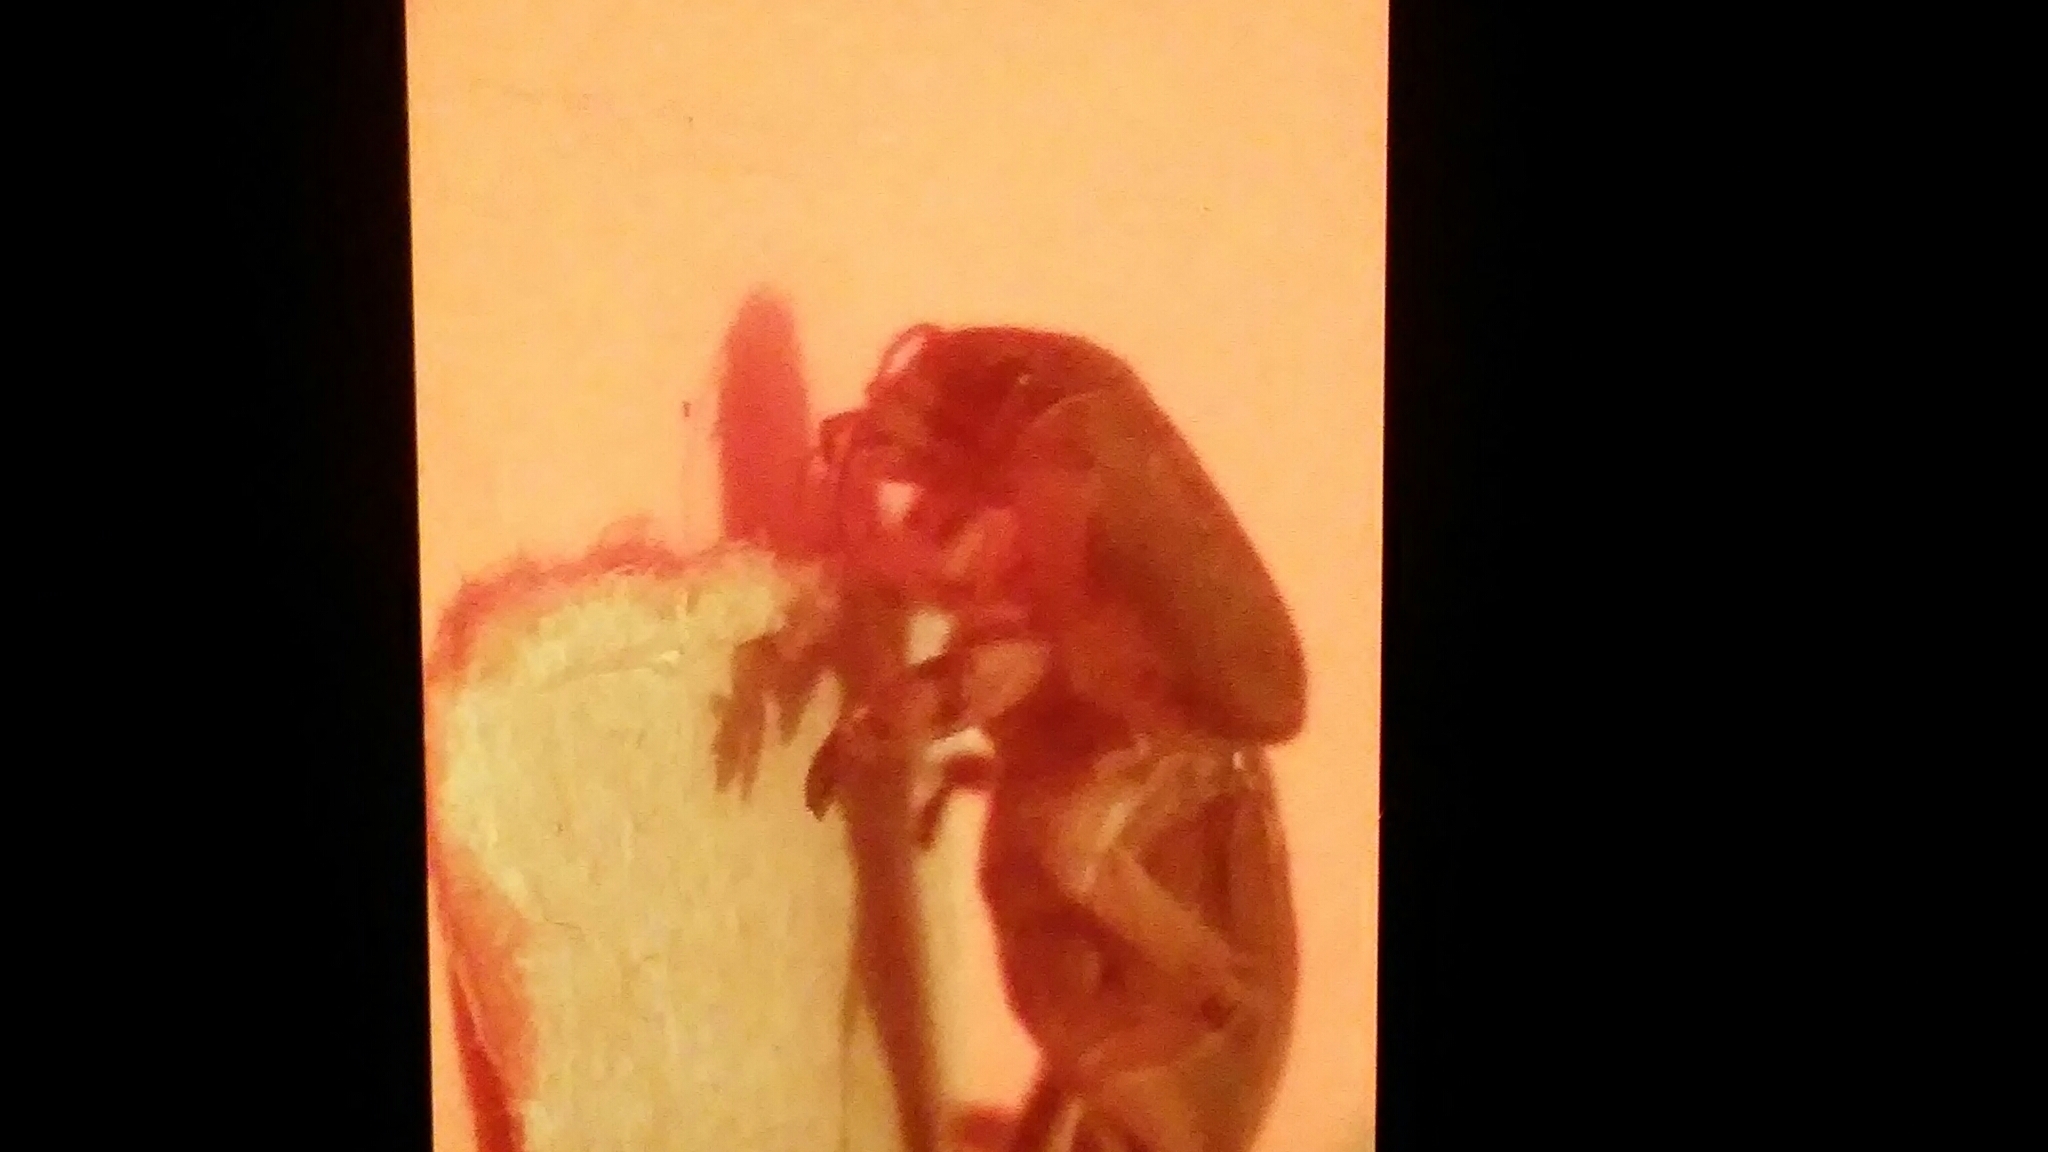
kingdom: Animalia
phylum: Arthropoda
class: Insecta
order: Orthoptera
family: Gryllotalpidae
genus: Neoscapteriscus
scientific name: Neoscapteriscus vicinus
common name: Tawny mole cricket
